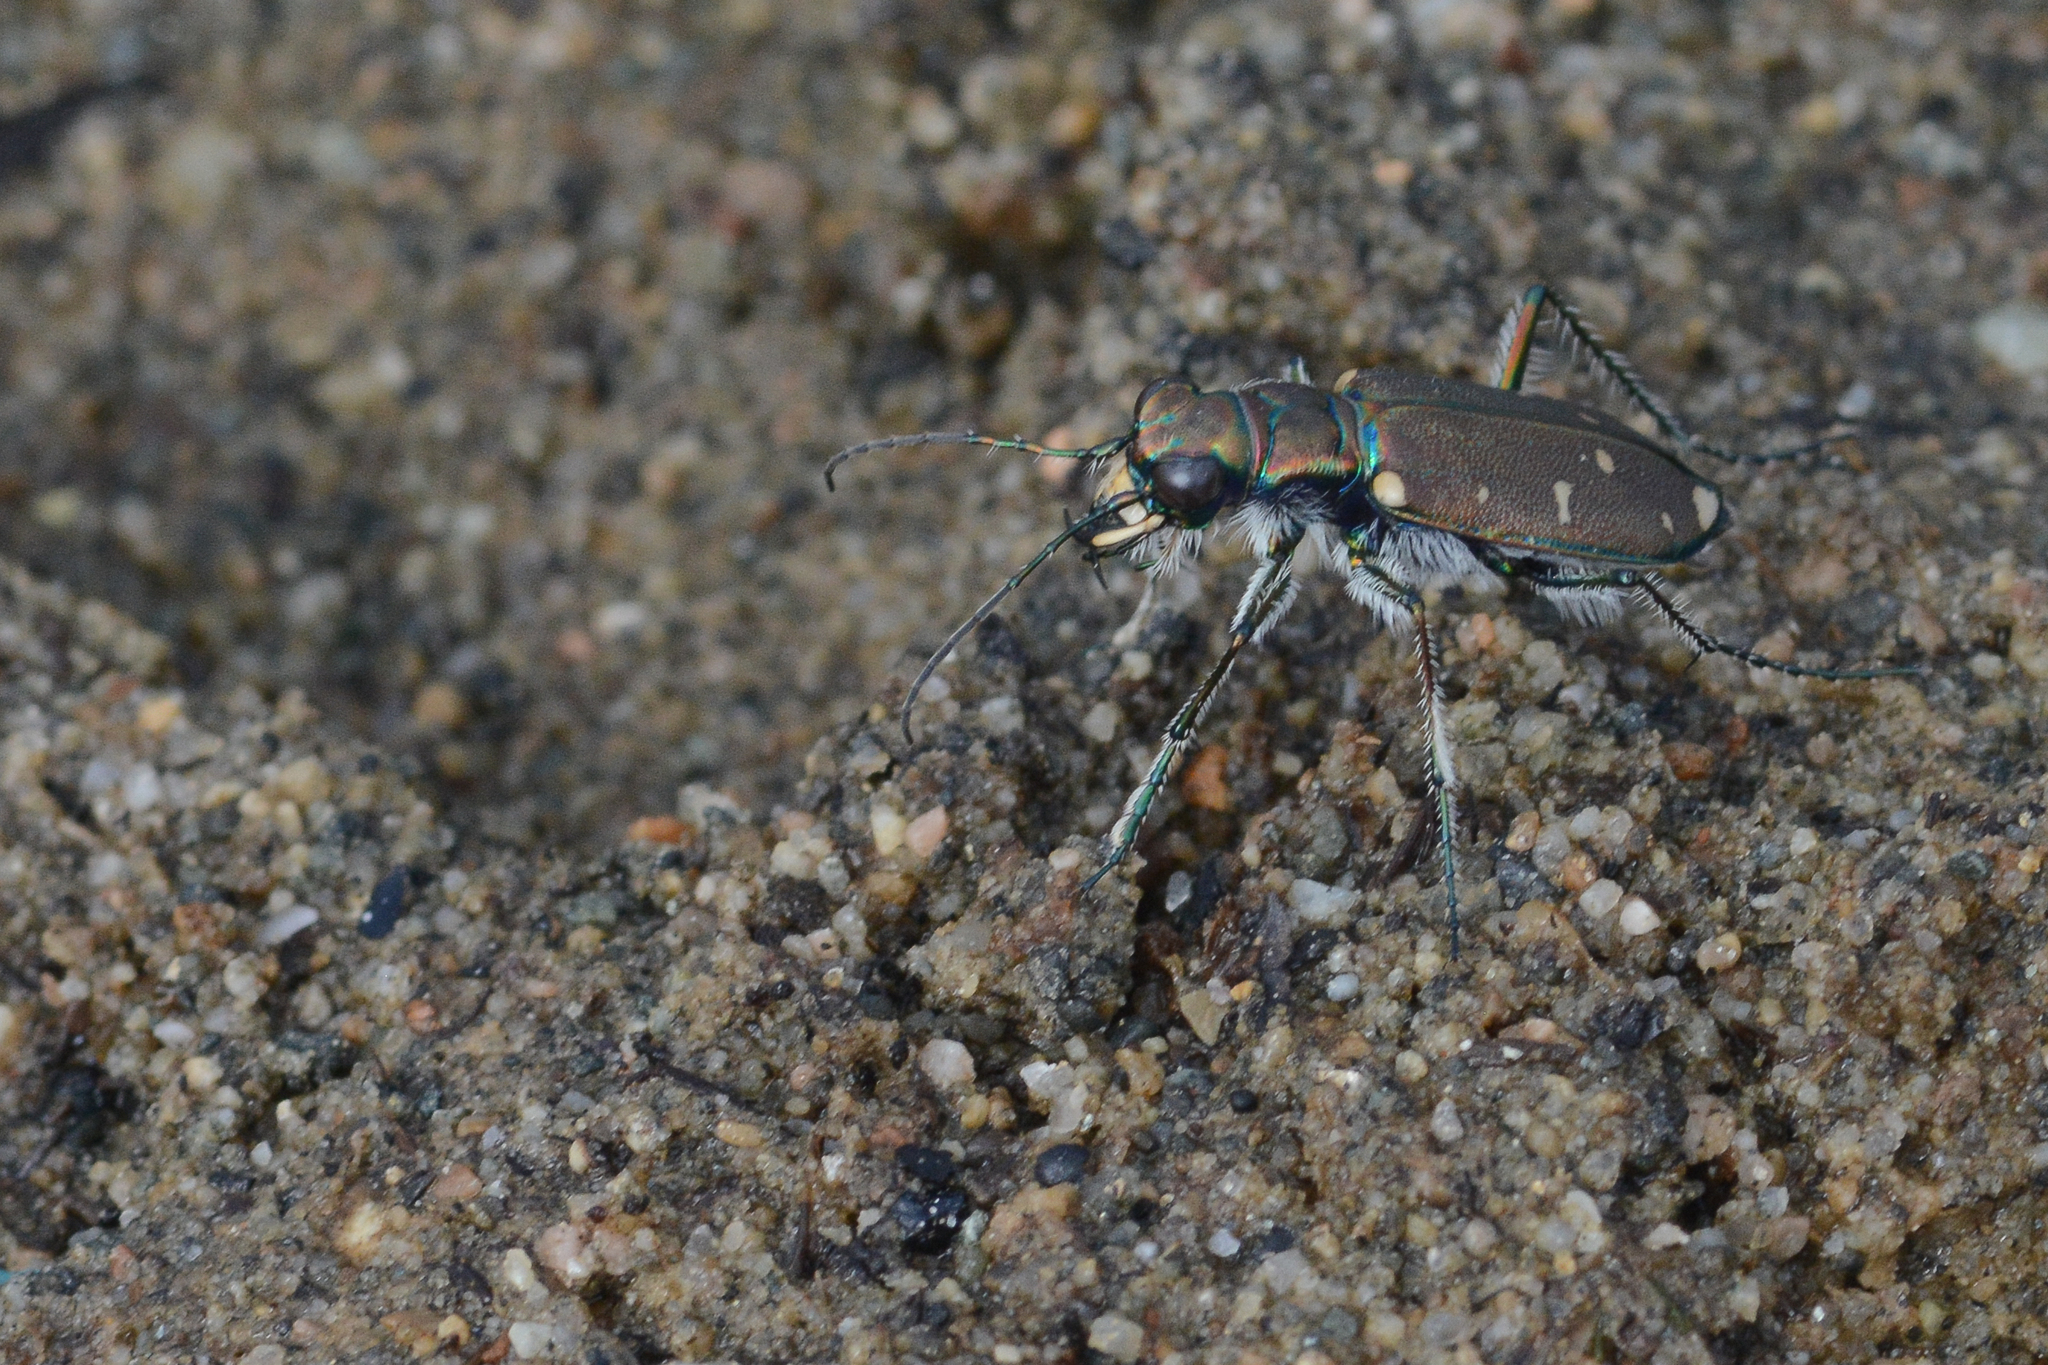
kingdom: Animalia
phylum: Arthropoda
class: Insecta
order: Coleoptera
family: Carabidae
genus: Cicindela
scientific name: Cicindela oregona
